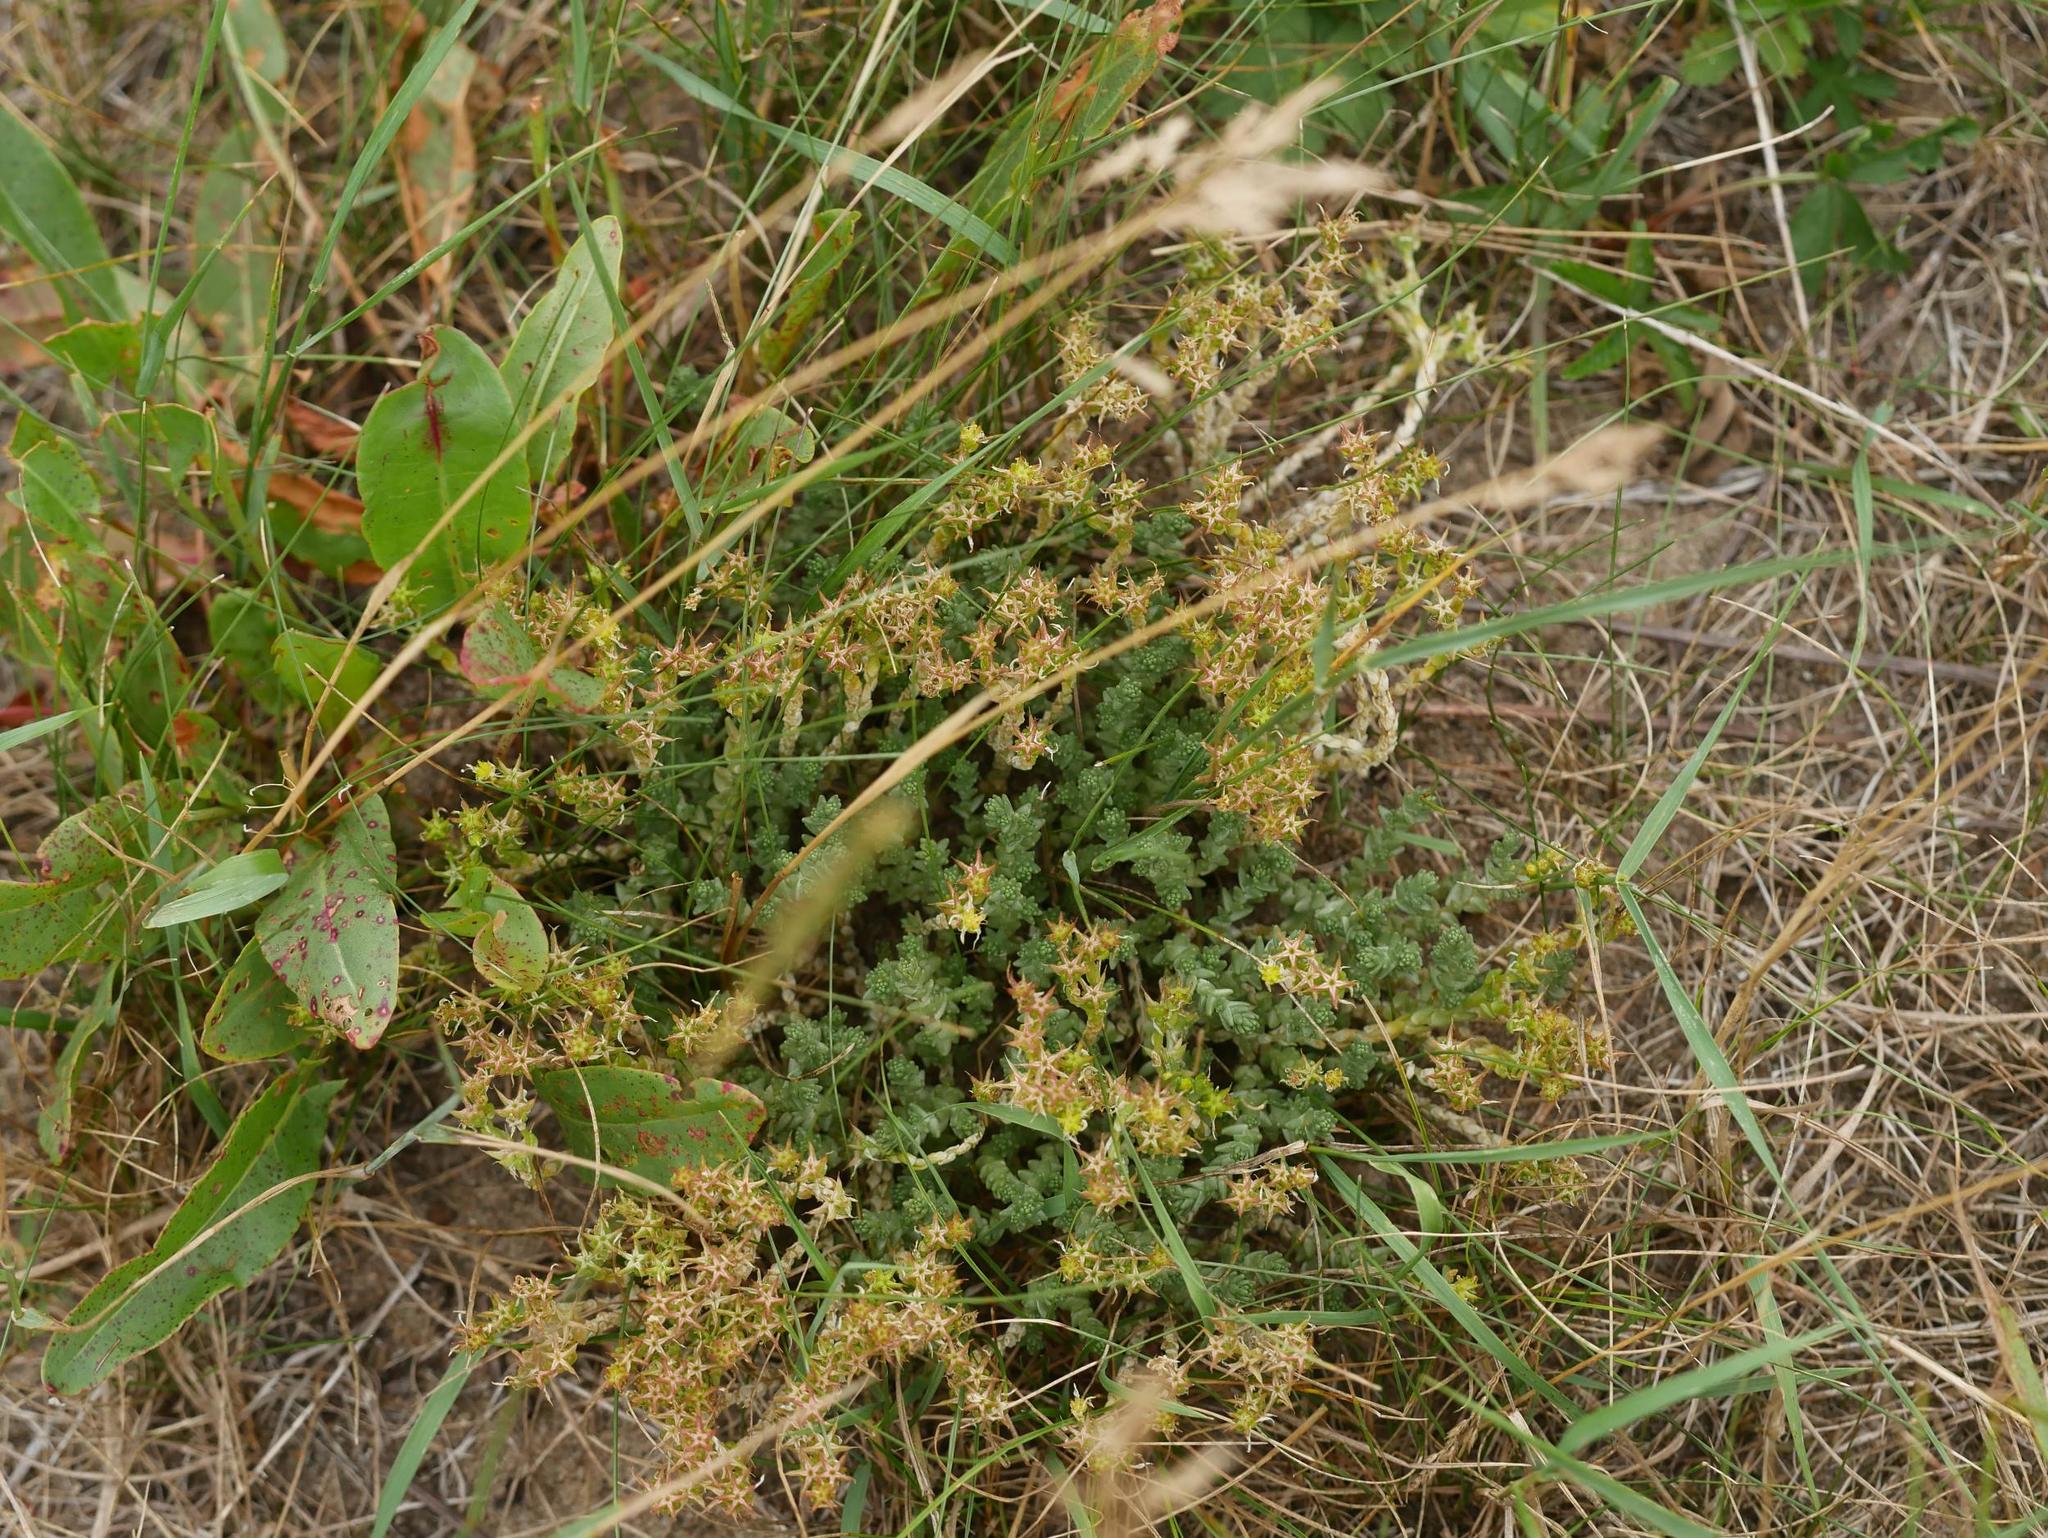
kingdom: Plantae
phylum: Tracheophyta
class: Magnoliopsida
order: Saxifragales
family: Crassulaceae
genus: Sedum
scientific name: Sedum acre
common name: Biting stonecrop
